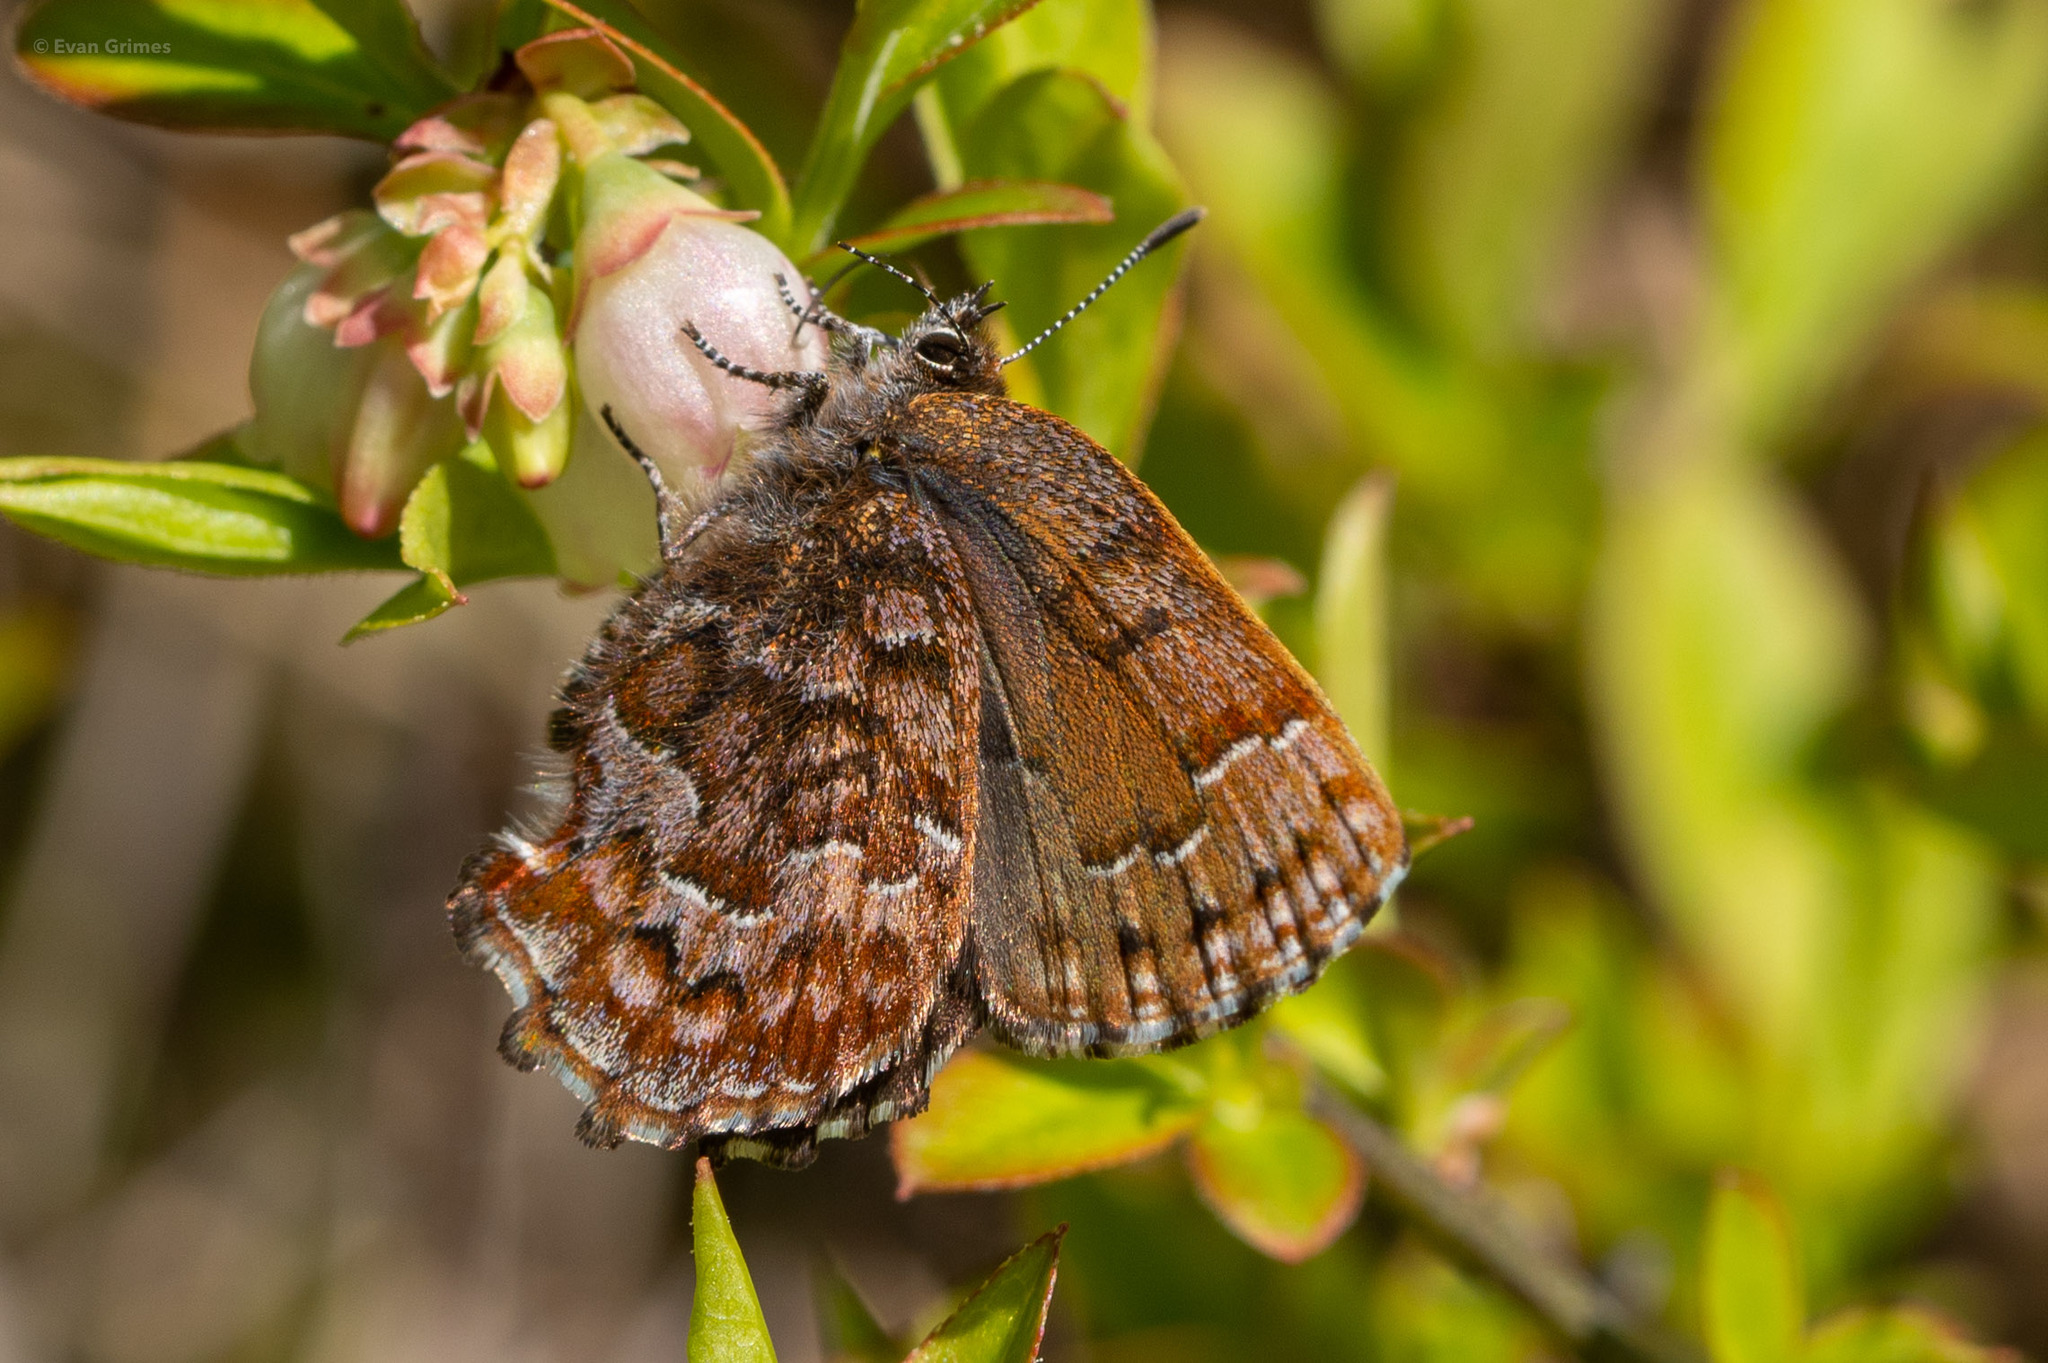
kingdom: Animalia
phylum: Arthropoda
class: Insecta
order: Lepidoptera
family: Lycaenidae
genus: Incisalia
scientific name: Incisalia niphon
